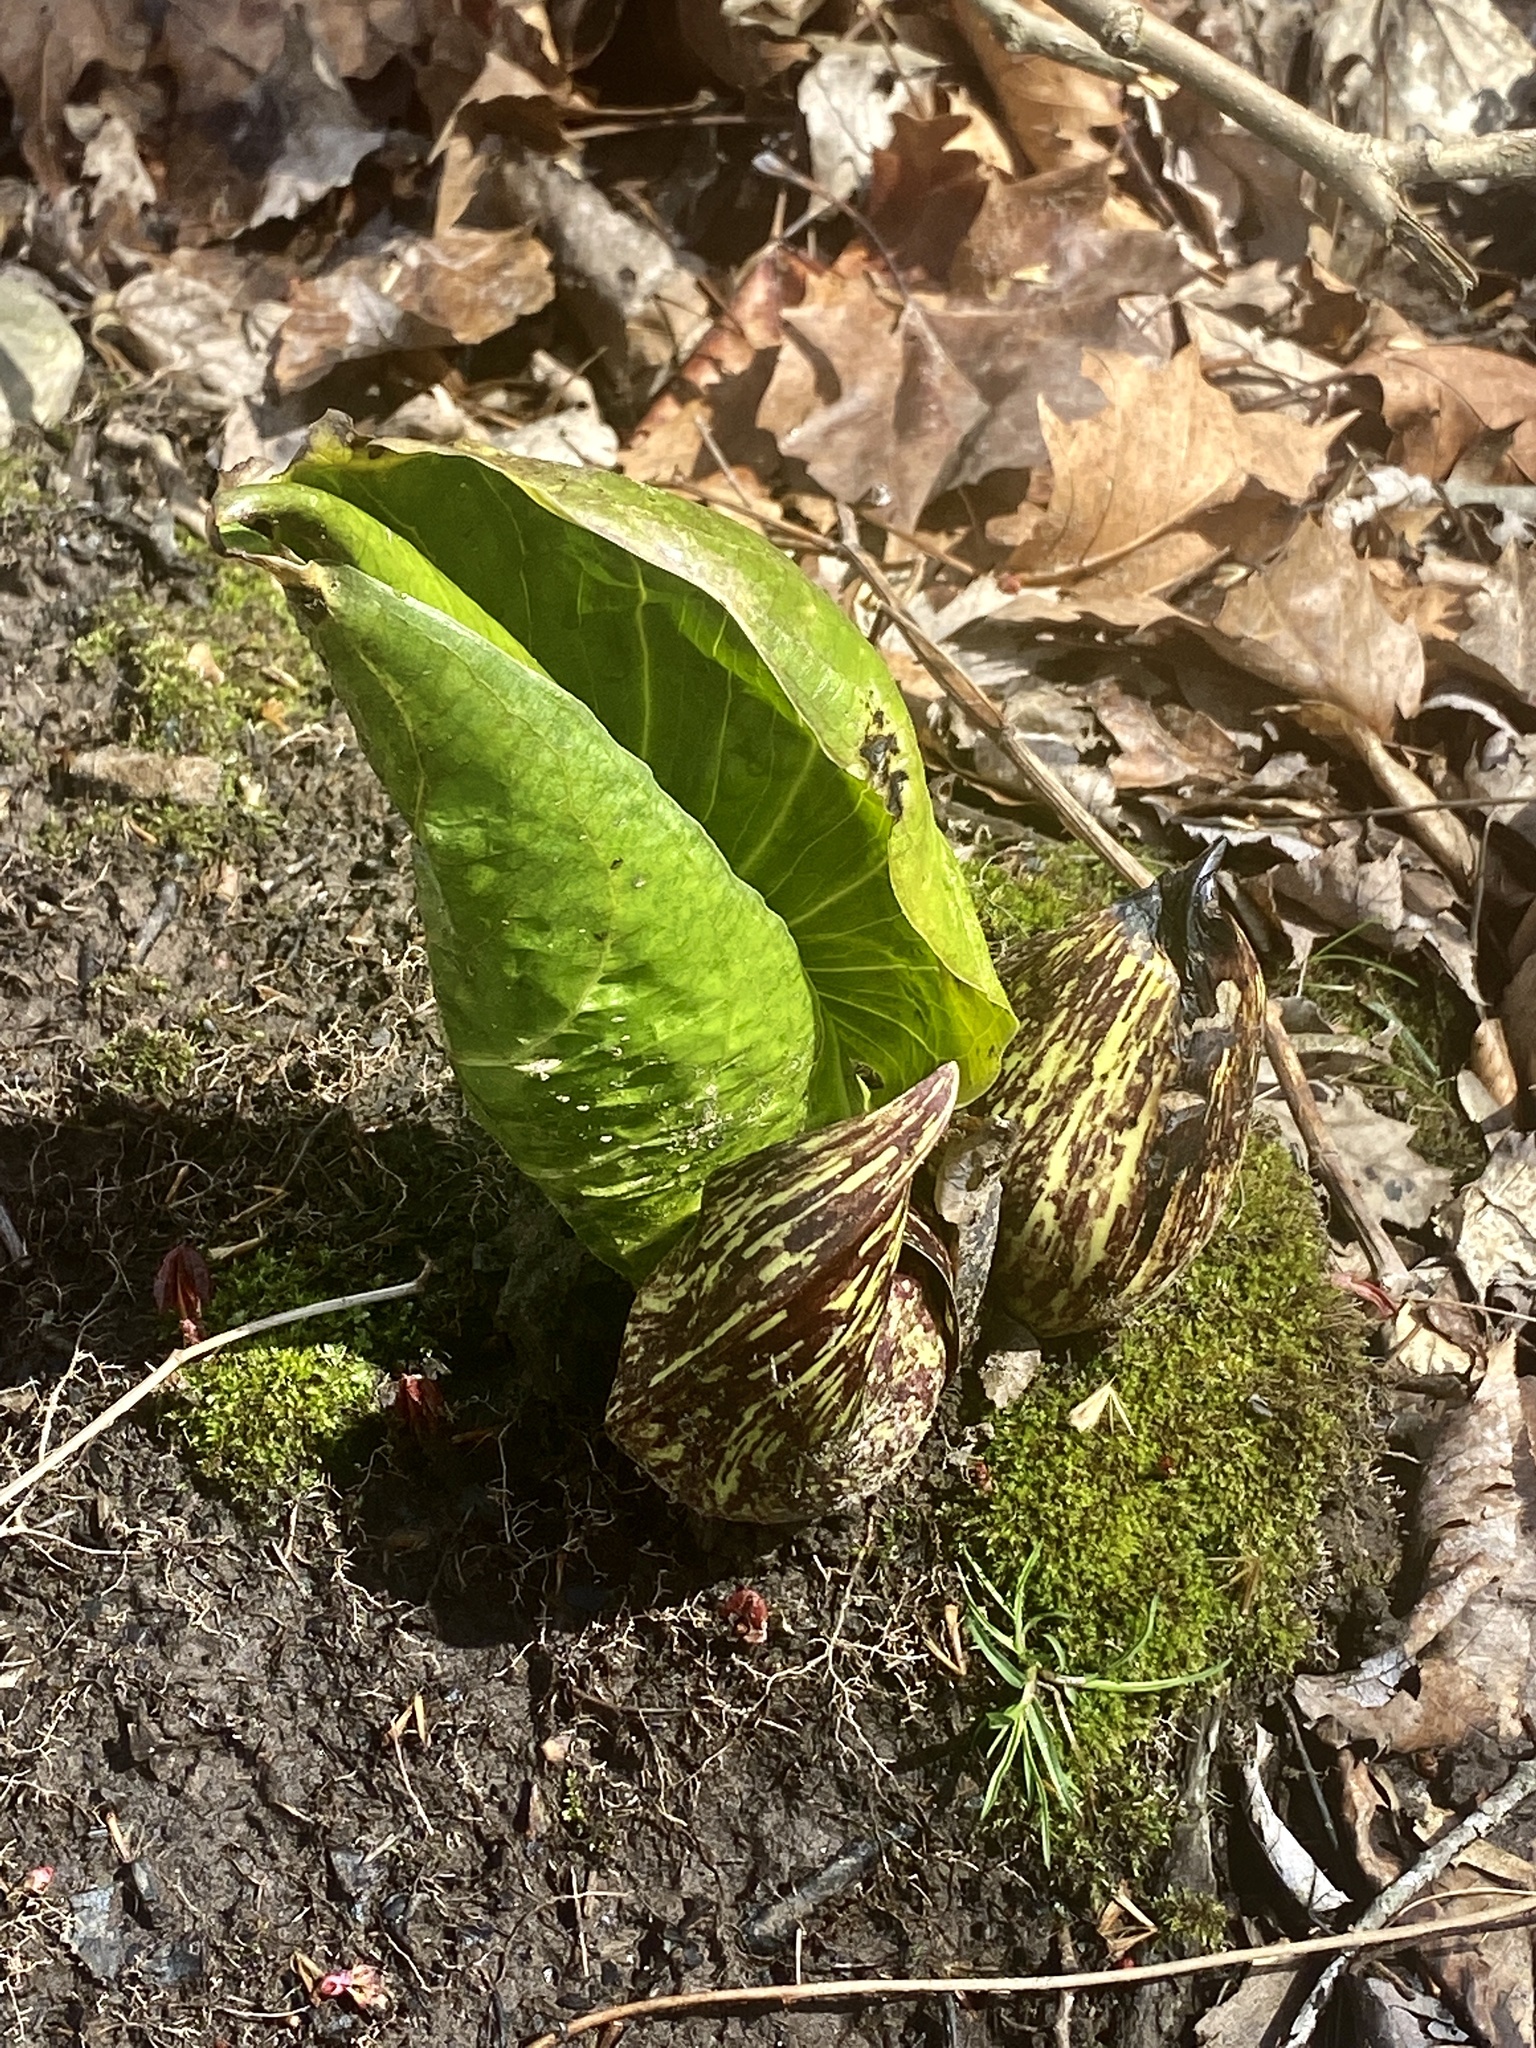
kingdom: Plantae
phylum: Tracheophyta
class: Liliopsida
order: Alismatales
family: Araceae
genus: Symplocarpus
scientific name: Symplocarpus foetidus
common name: Eastern skunk cabbage
